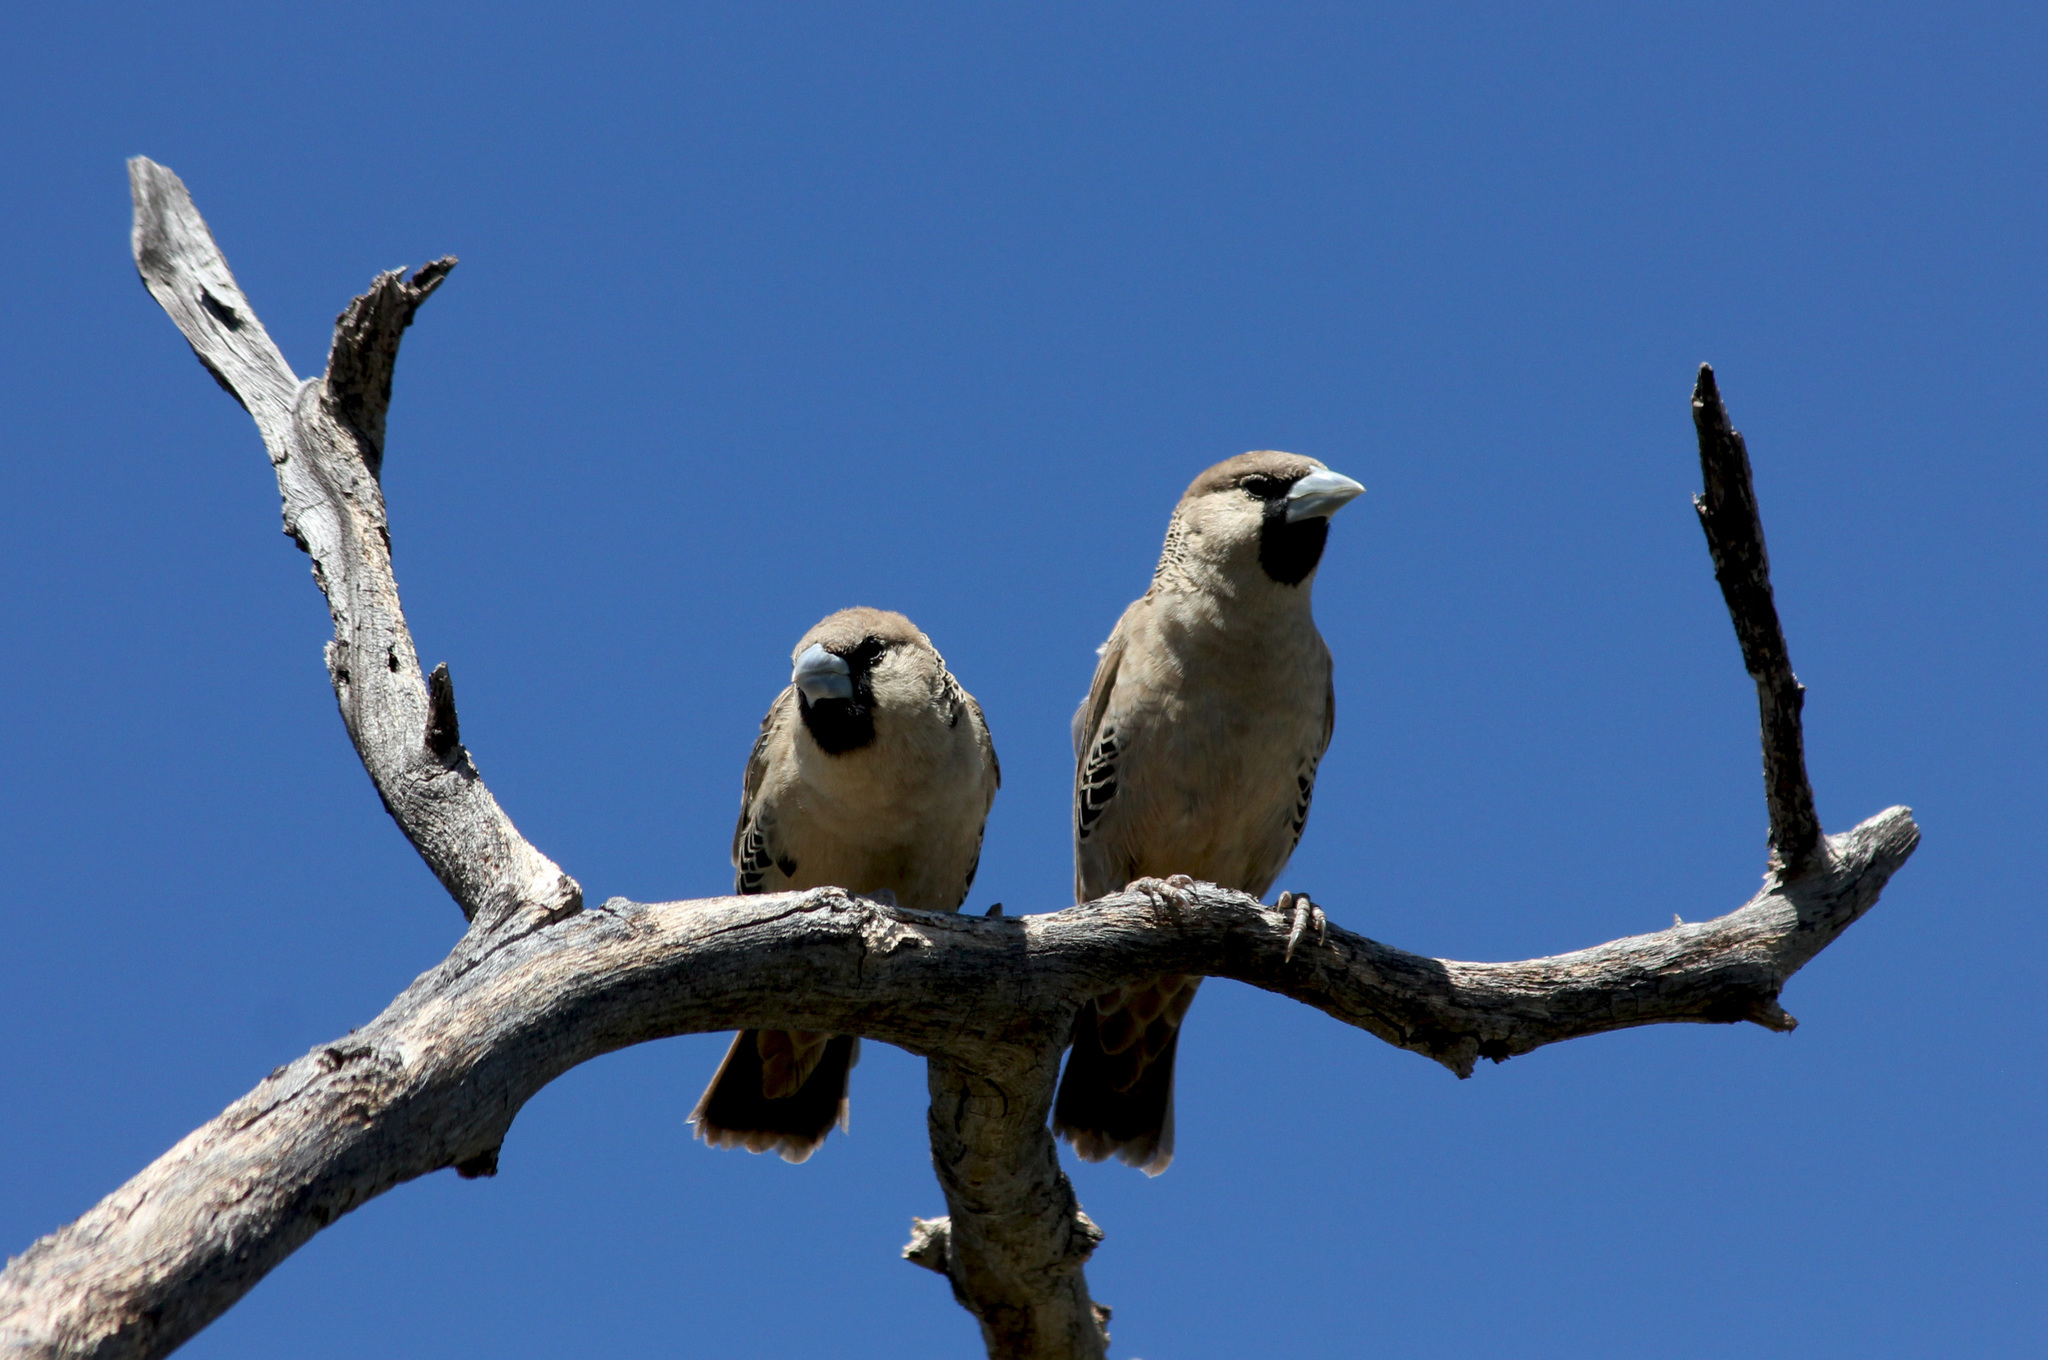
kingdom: Animalia
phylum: Chordata
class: Aves
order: Passeriformes
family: Passeridae
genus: Philetairus
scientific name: Philetairus socius
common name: Sociable weaver
